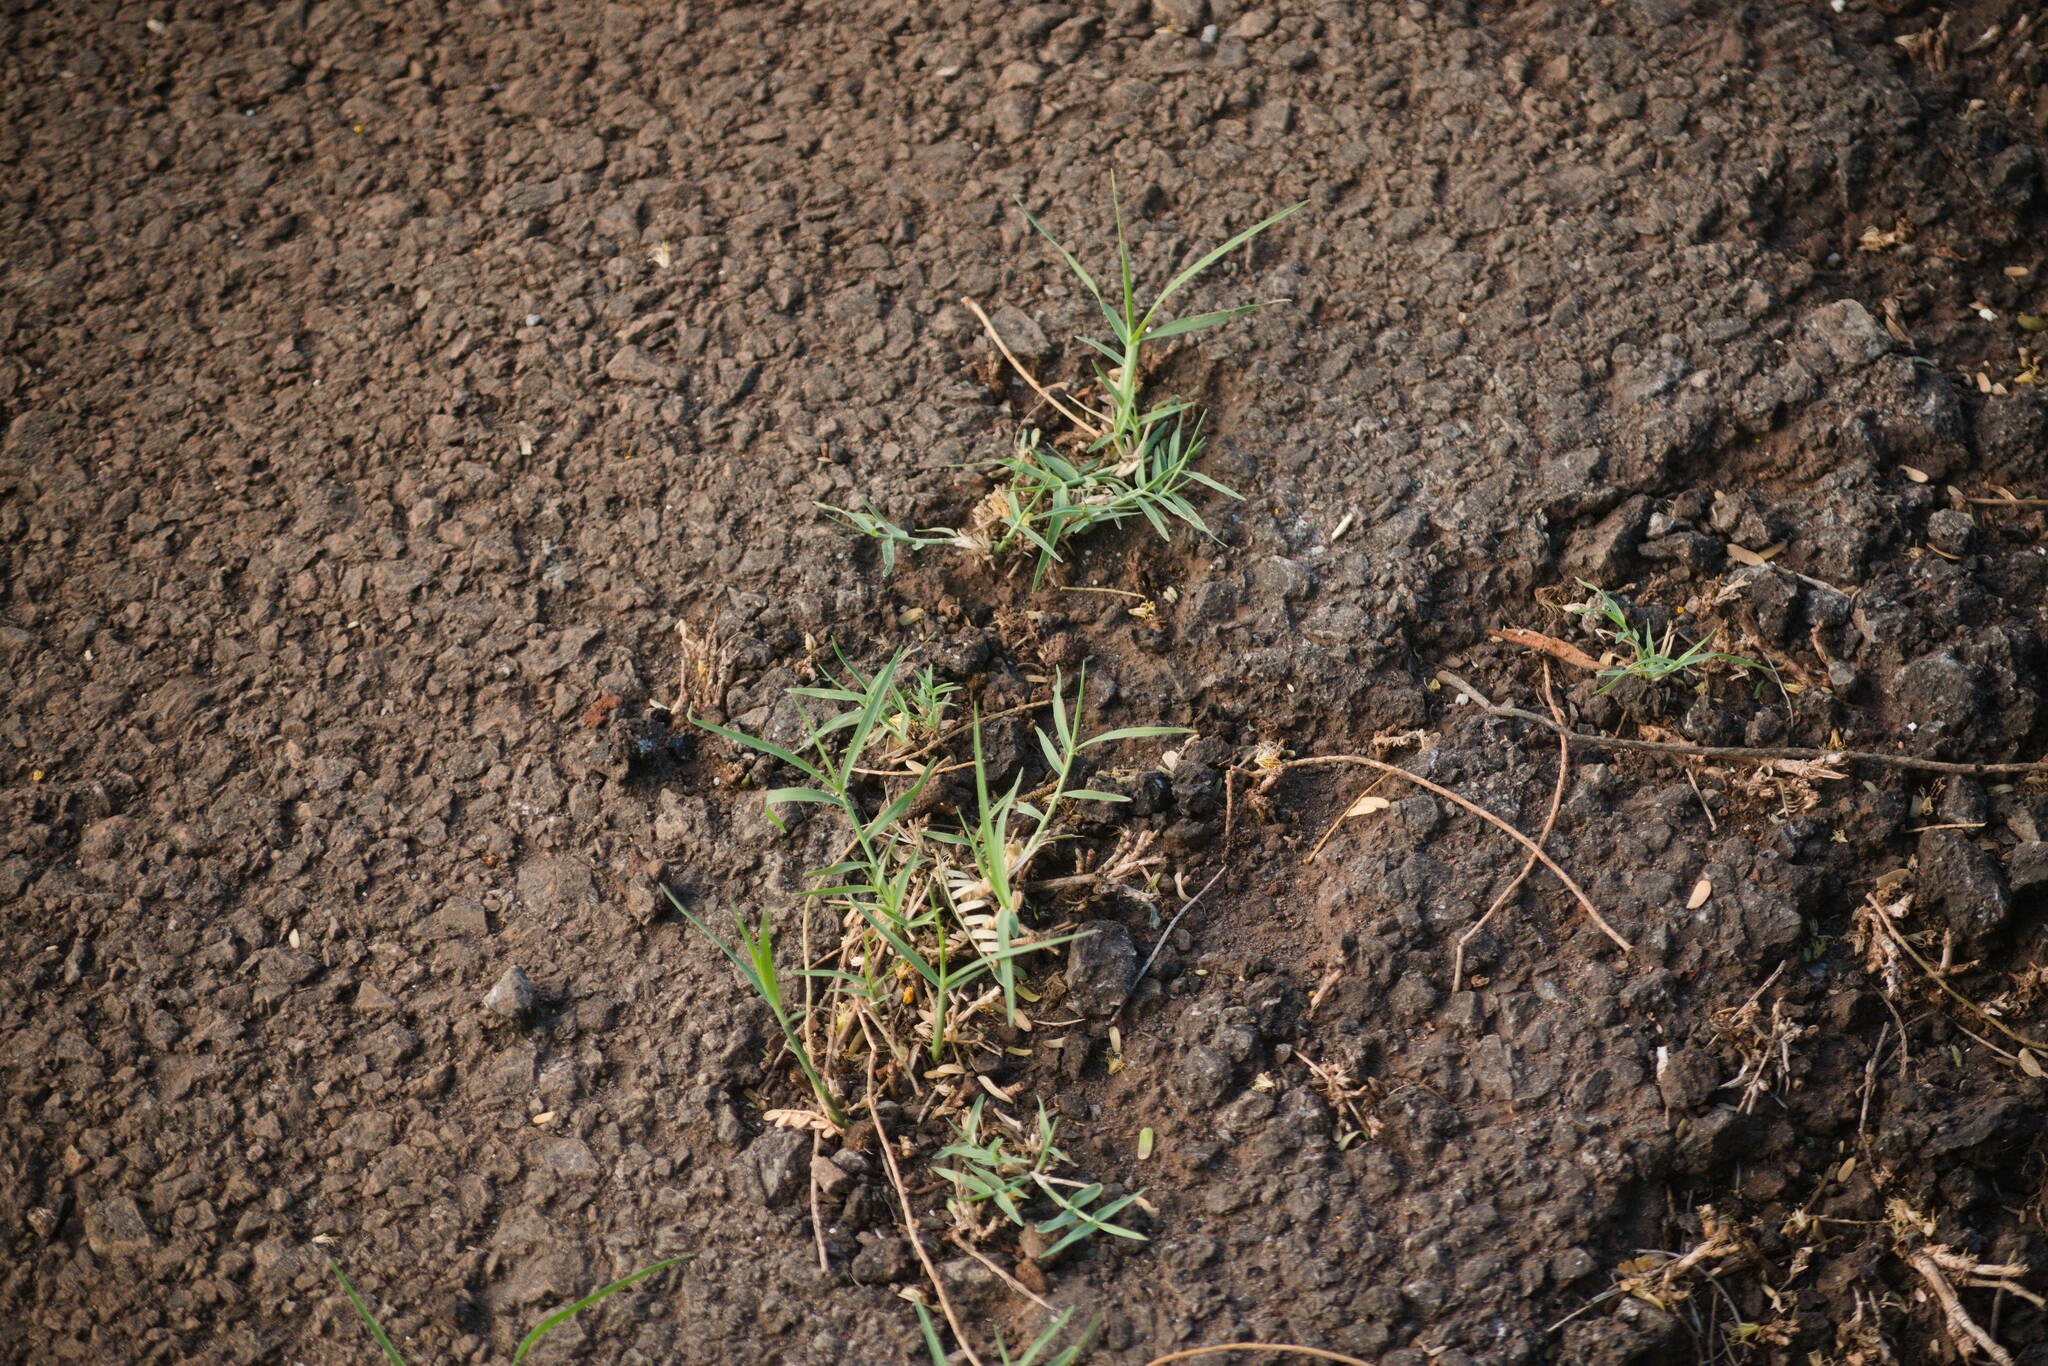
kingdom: Plantae
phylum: Tracheophyta
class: Liliopsida
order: Poales
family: Poaceae
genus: Cynodon
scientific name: Cynodon dactylon
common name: Bermuda grass
